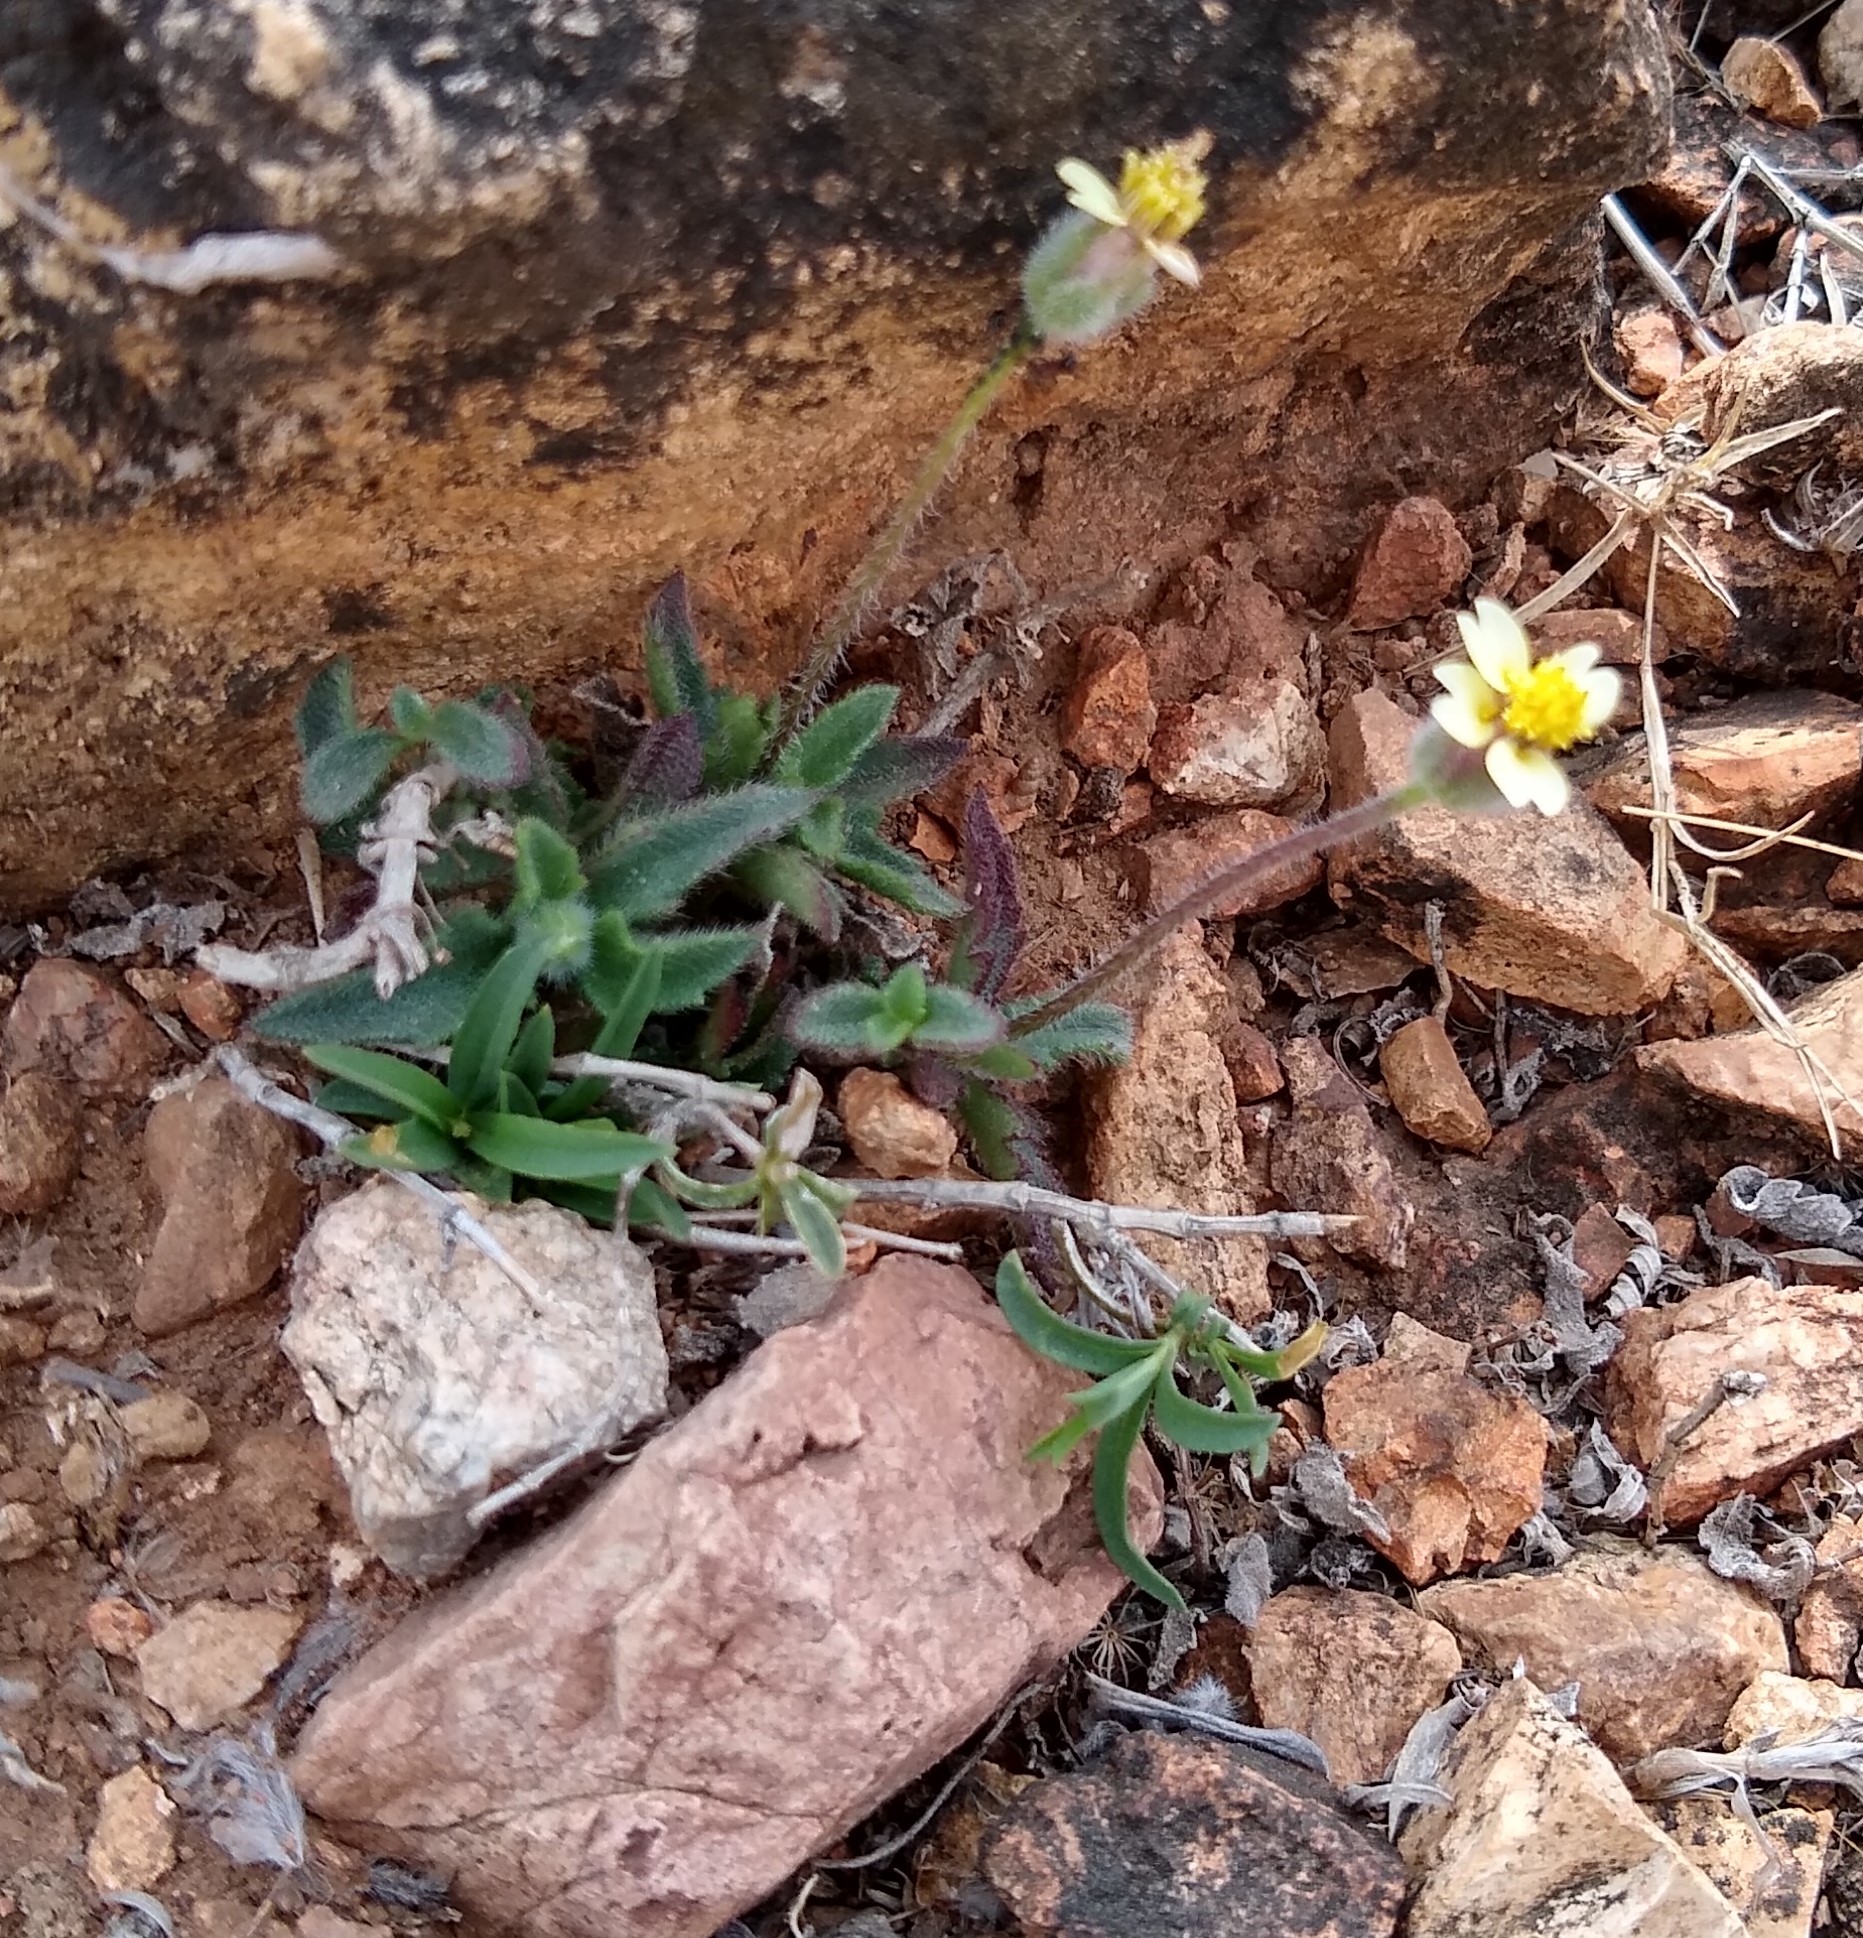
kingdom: Plantae
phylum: Tracheophyta
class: Magnoliopsida
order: Asterales
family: Asteraceae
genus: Tridax
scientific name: Tridax procumbens
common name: Coatbuttons
